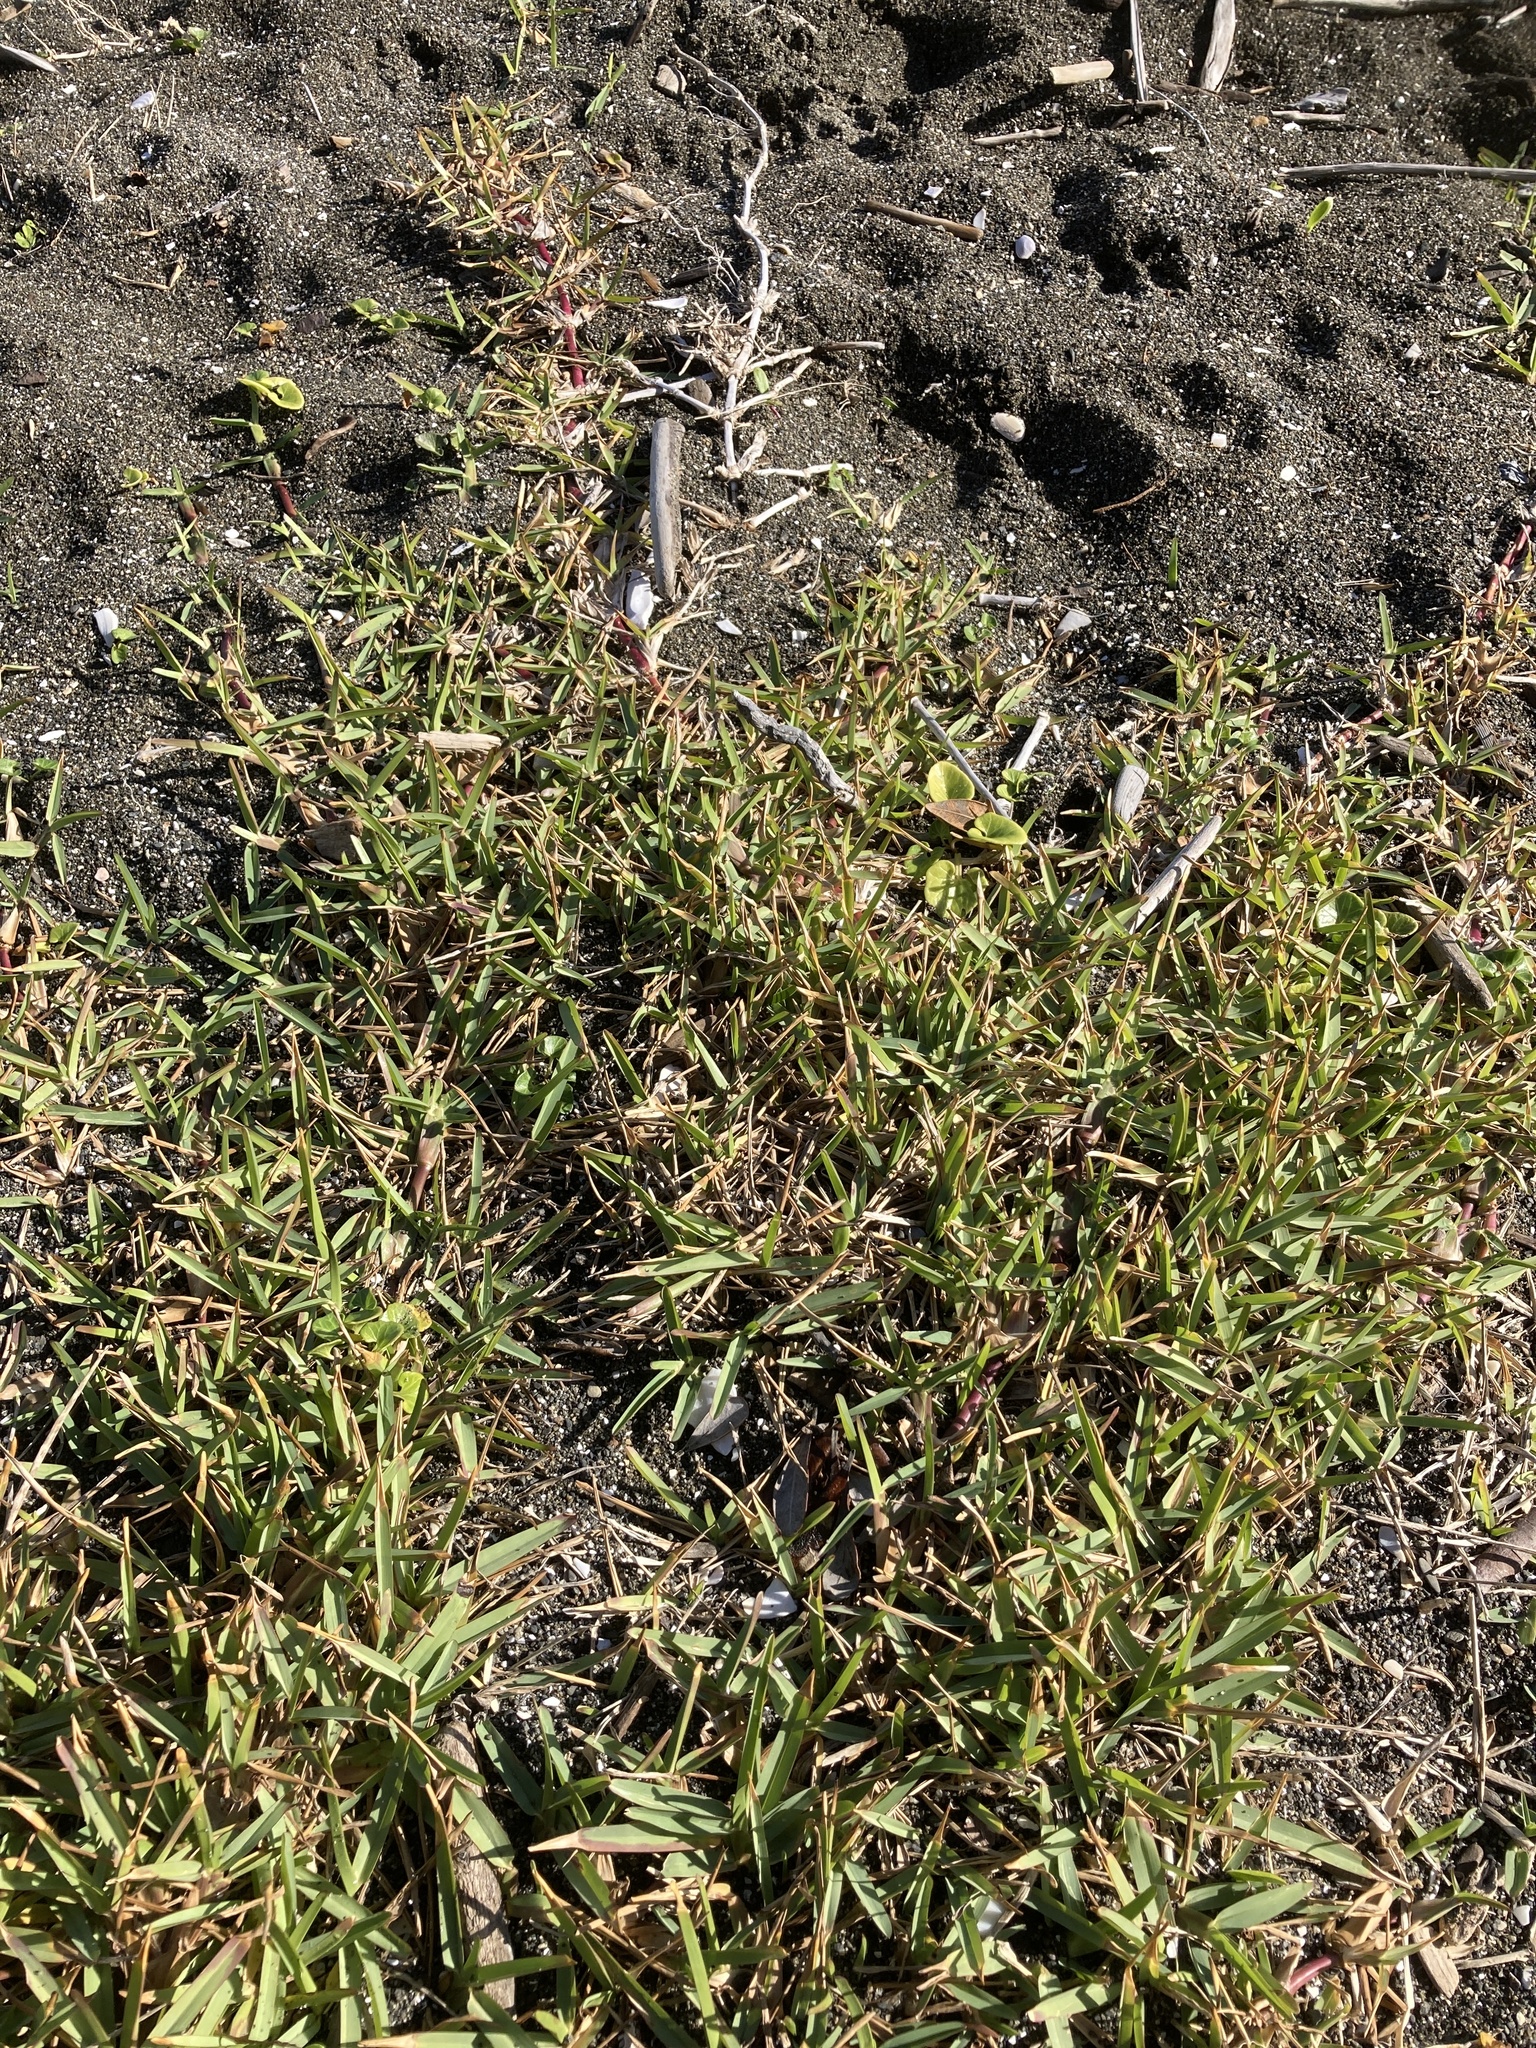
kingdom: Plantae
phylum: Tracheophyta
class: Liliopsida
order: Poales
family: Poaceae
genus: Stenotaphrum
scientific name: Stenotaphrum secundatum
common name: St. augustine grass
